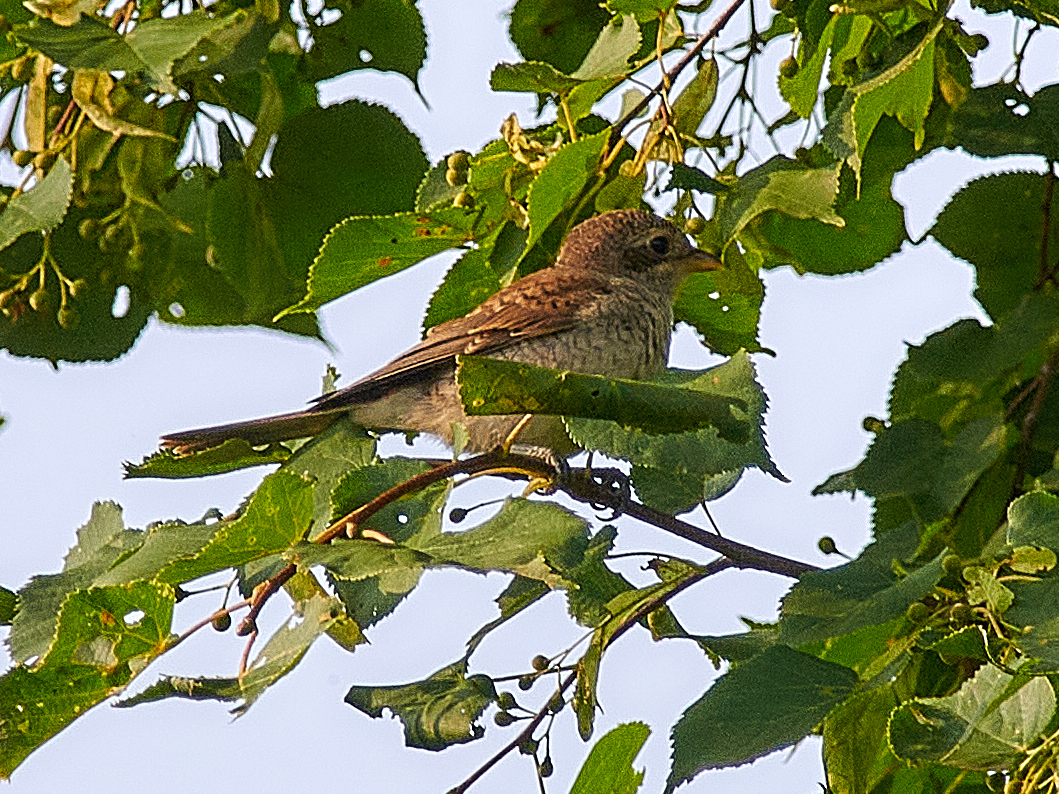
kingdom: Animalia
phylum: Chordata
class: Aves
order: Passeriformes
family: Laniidae
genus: Lanius
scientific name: Lanius collurio
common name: Red-backed shrike
